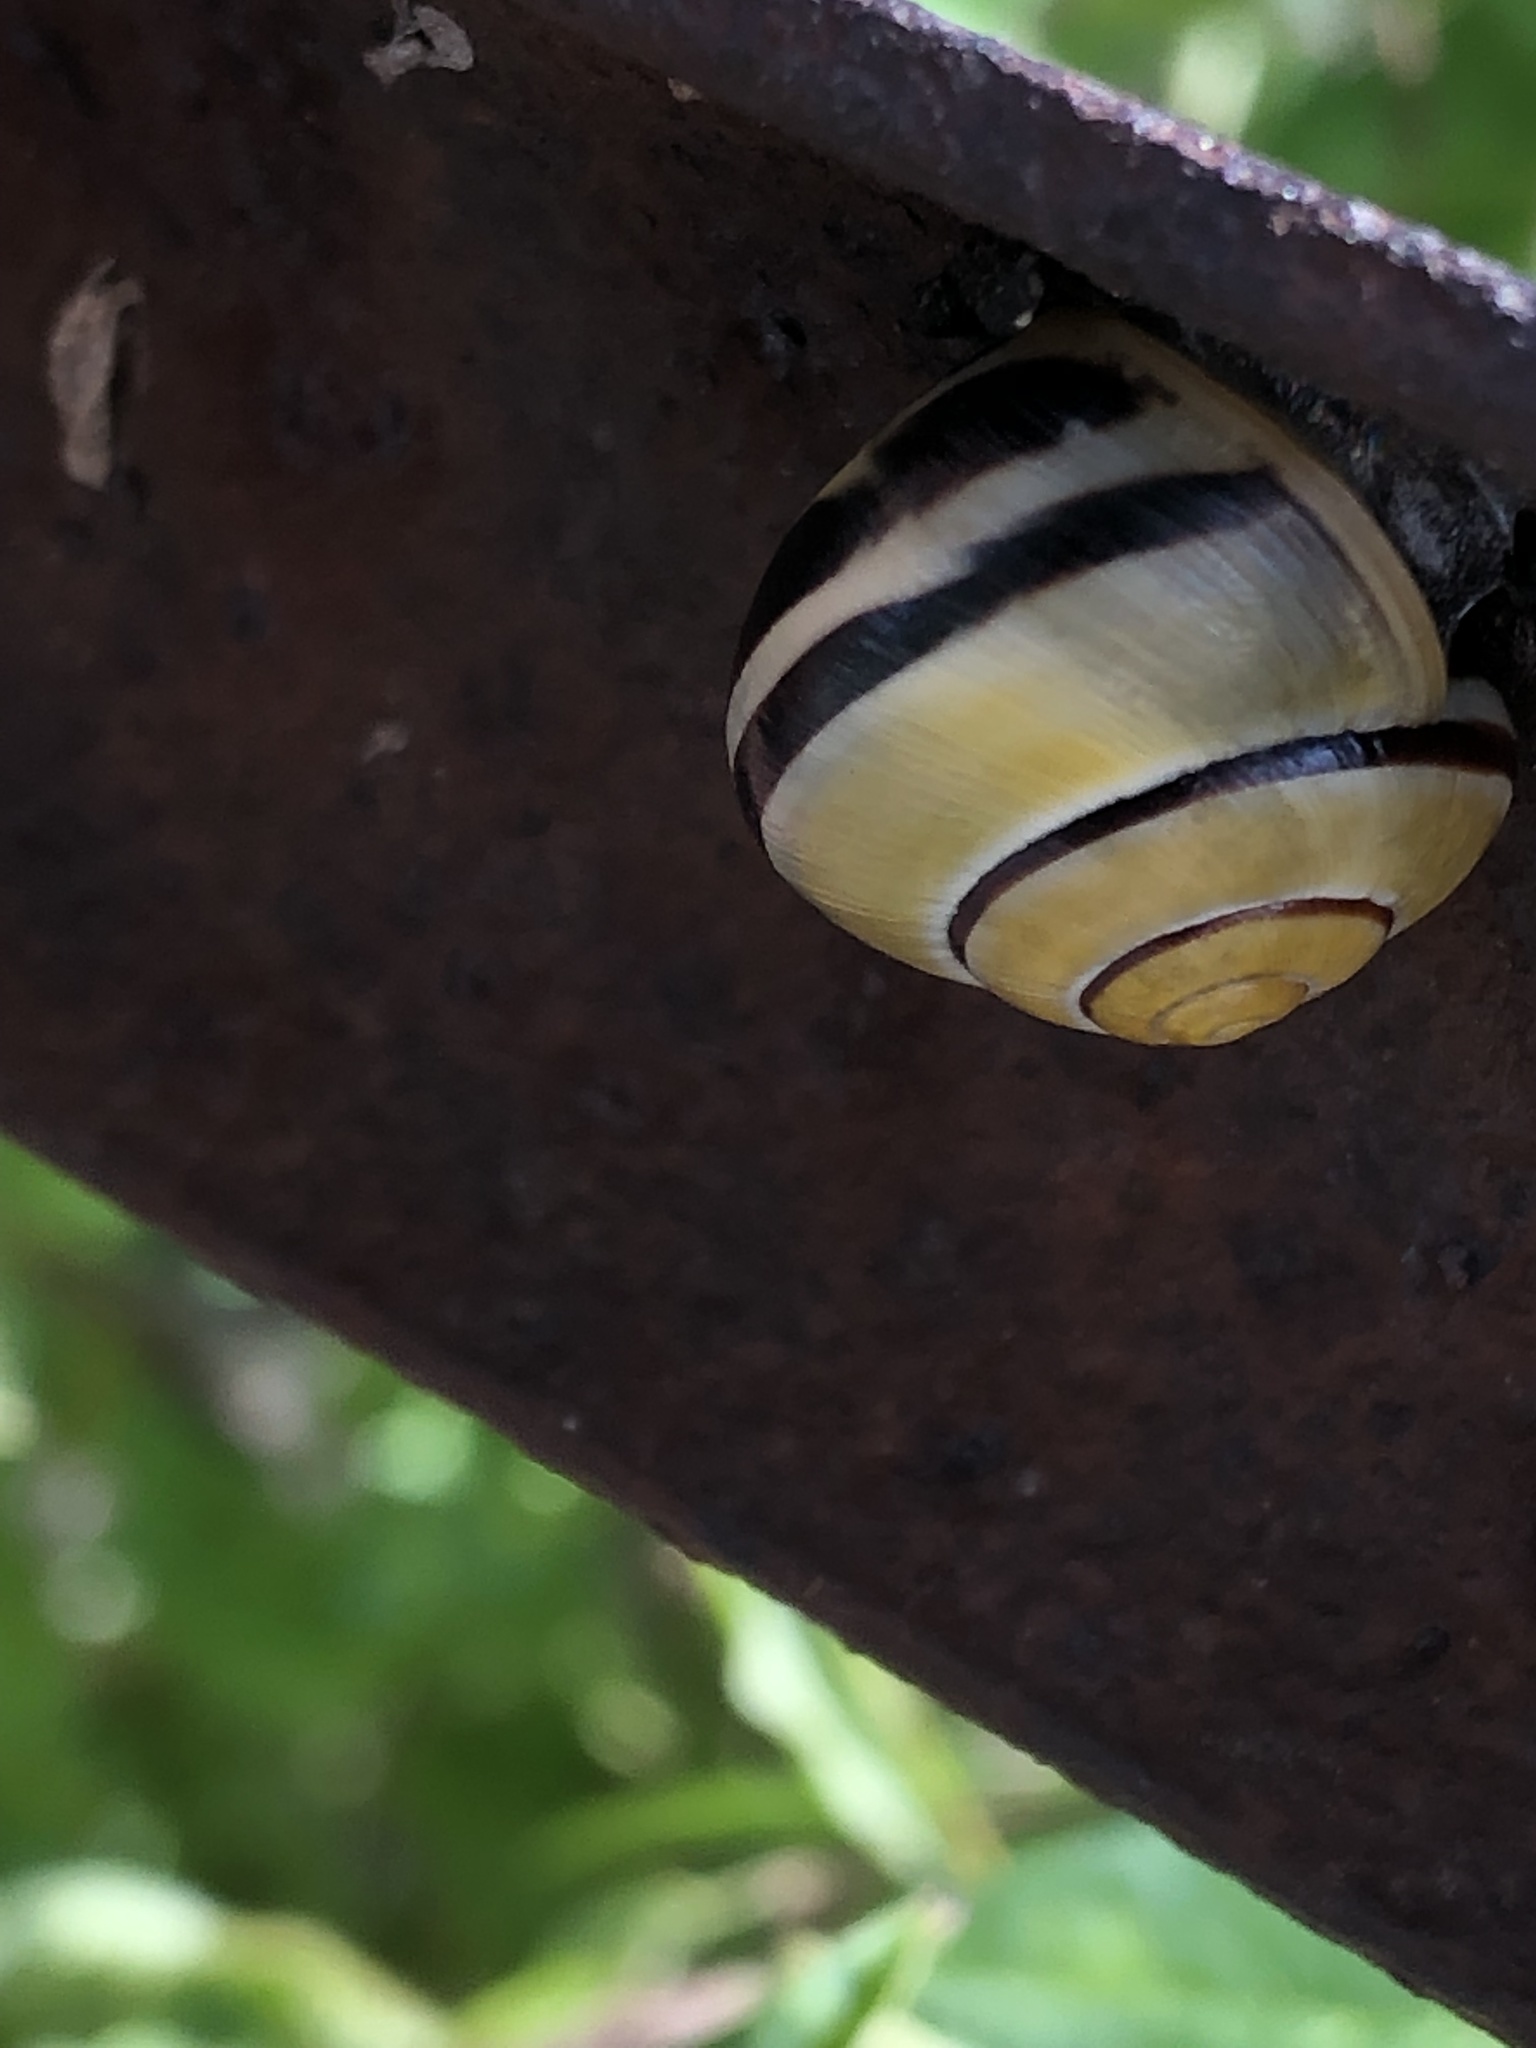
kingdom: Animalia
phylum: Mollusca
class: Gastropoda
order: Stylommatophora
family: Helicidae
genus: Cepaea
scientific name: Cepaea nemoralis
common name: Grovesnail
